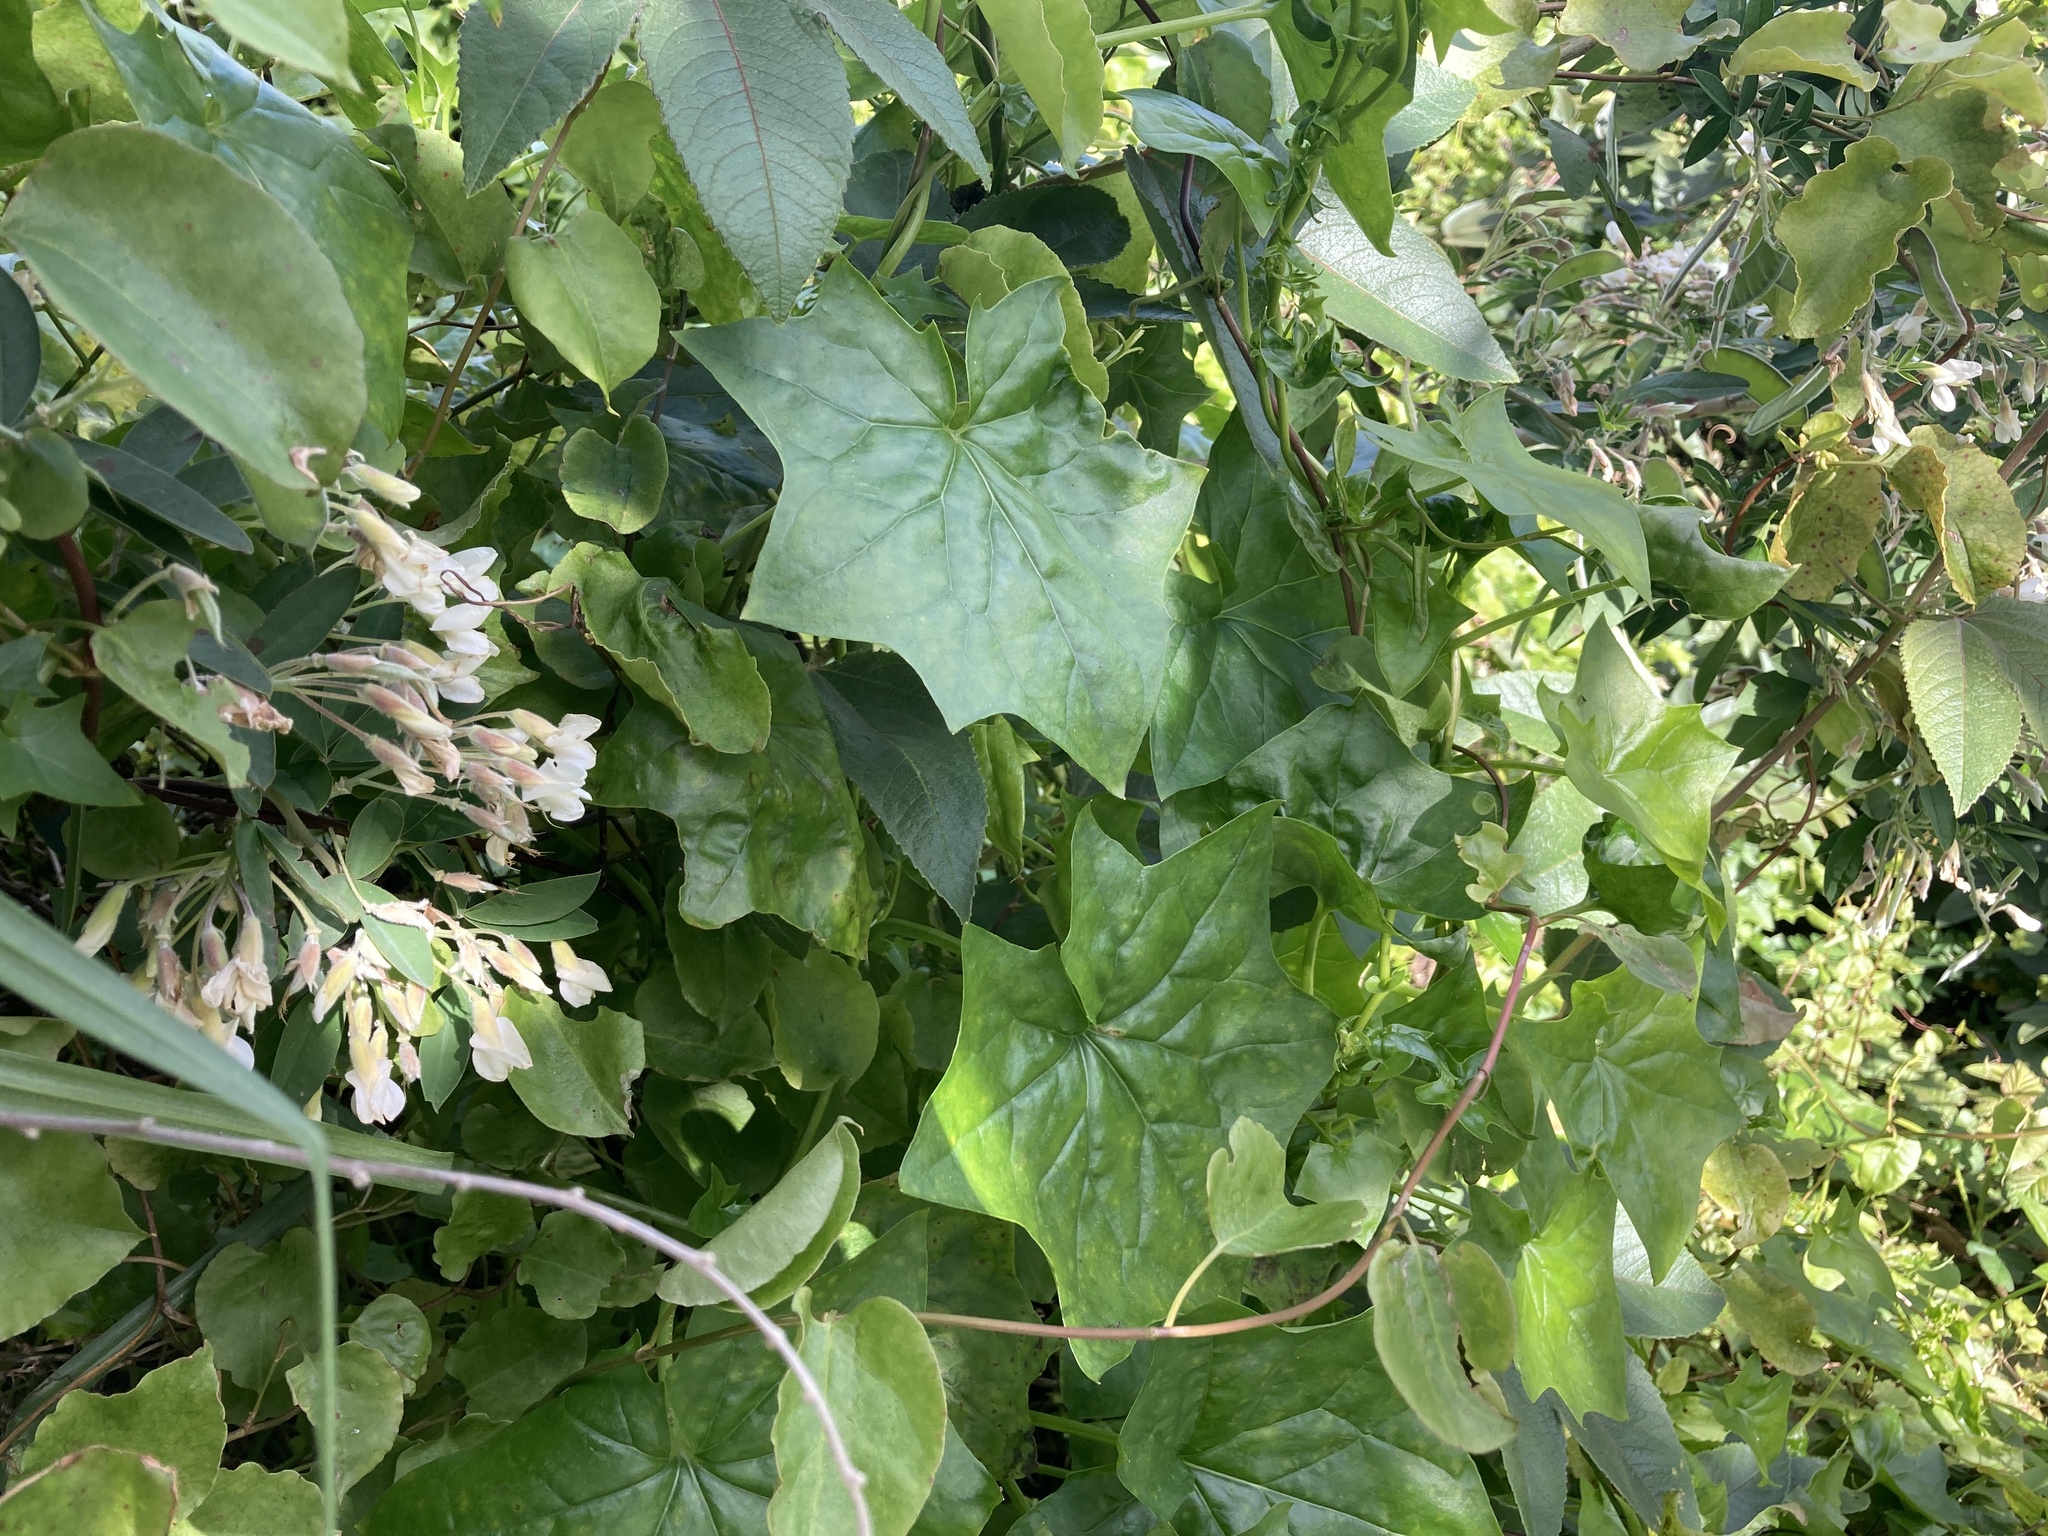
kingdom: Plantae
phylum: Tracheophyta
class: Magnoliopsida
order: Asterales
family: Asteraceae
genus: Delairea
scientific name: Delairea odorata
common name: Cape-ivy
